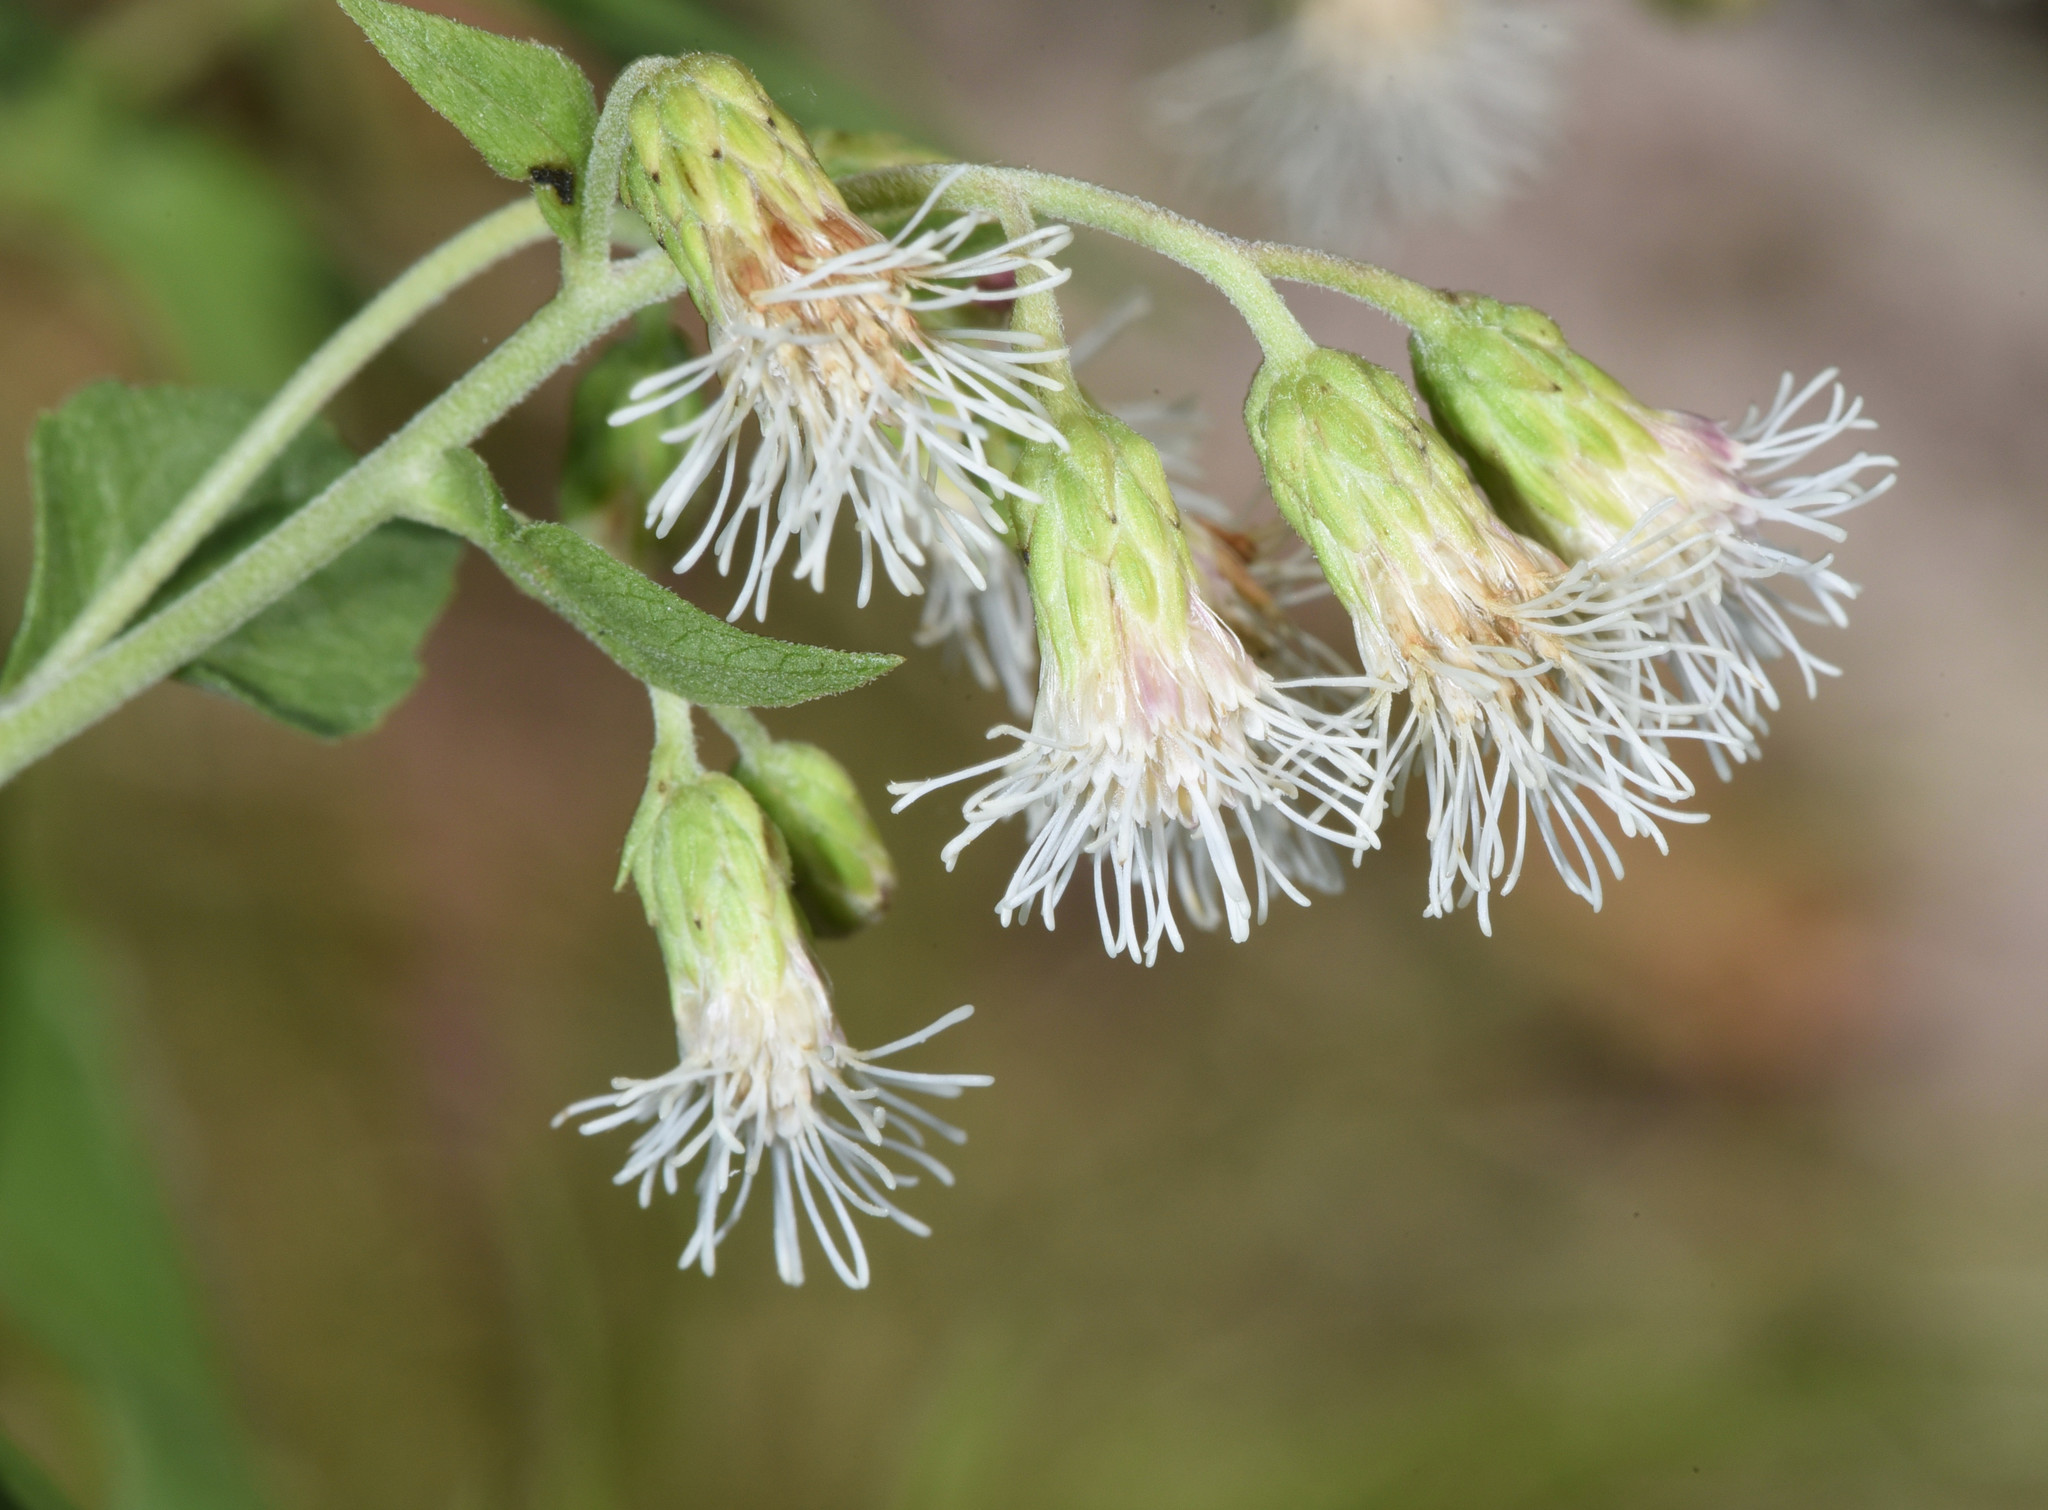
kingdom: Plantae
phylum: Tracheophyta
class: Magnoliopsida
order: Asterales
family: Asteraceae
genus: Brickelliastrum
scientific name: Brickelliastrum fendleri
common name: Fendler's-brickellbush
